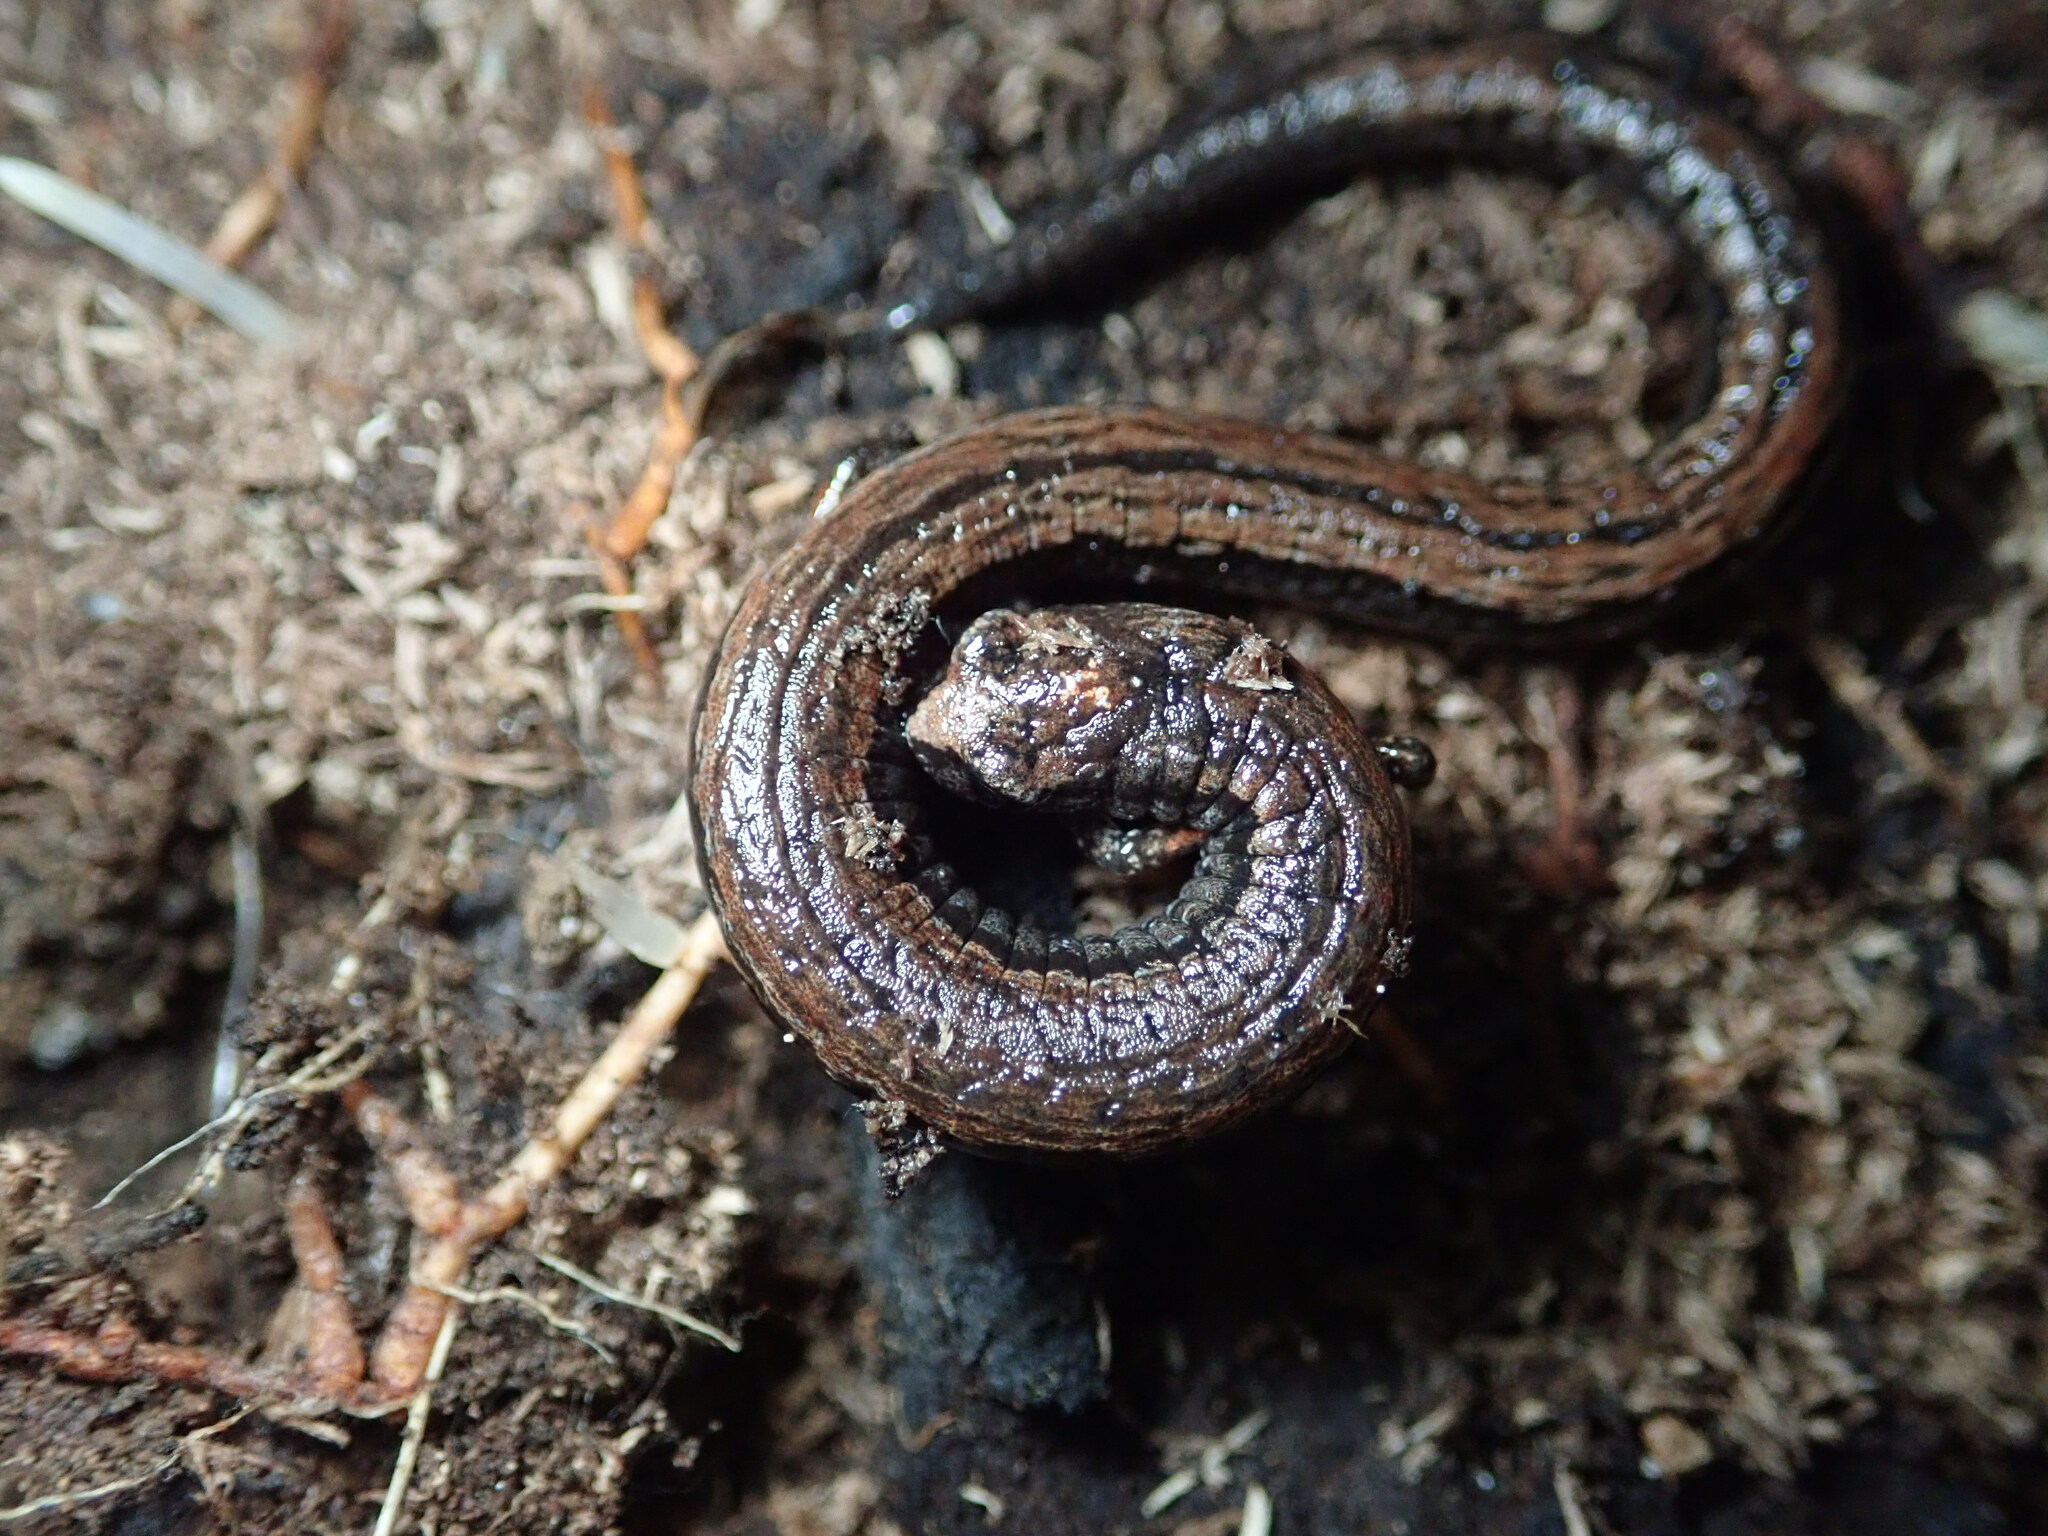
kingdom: Animalia
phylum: Chordata
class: Amphibia
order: Caudata
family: Plethodontidae
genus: Batrachoseps
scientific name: Batrachoseps attenuatus
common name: California slender salamander
